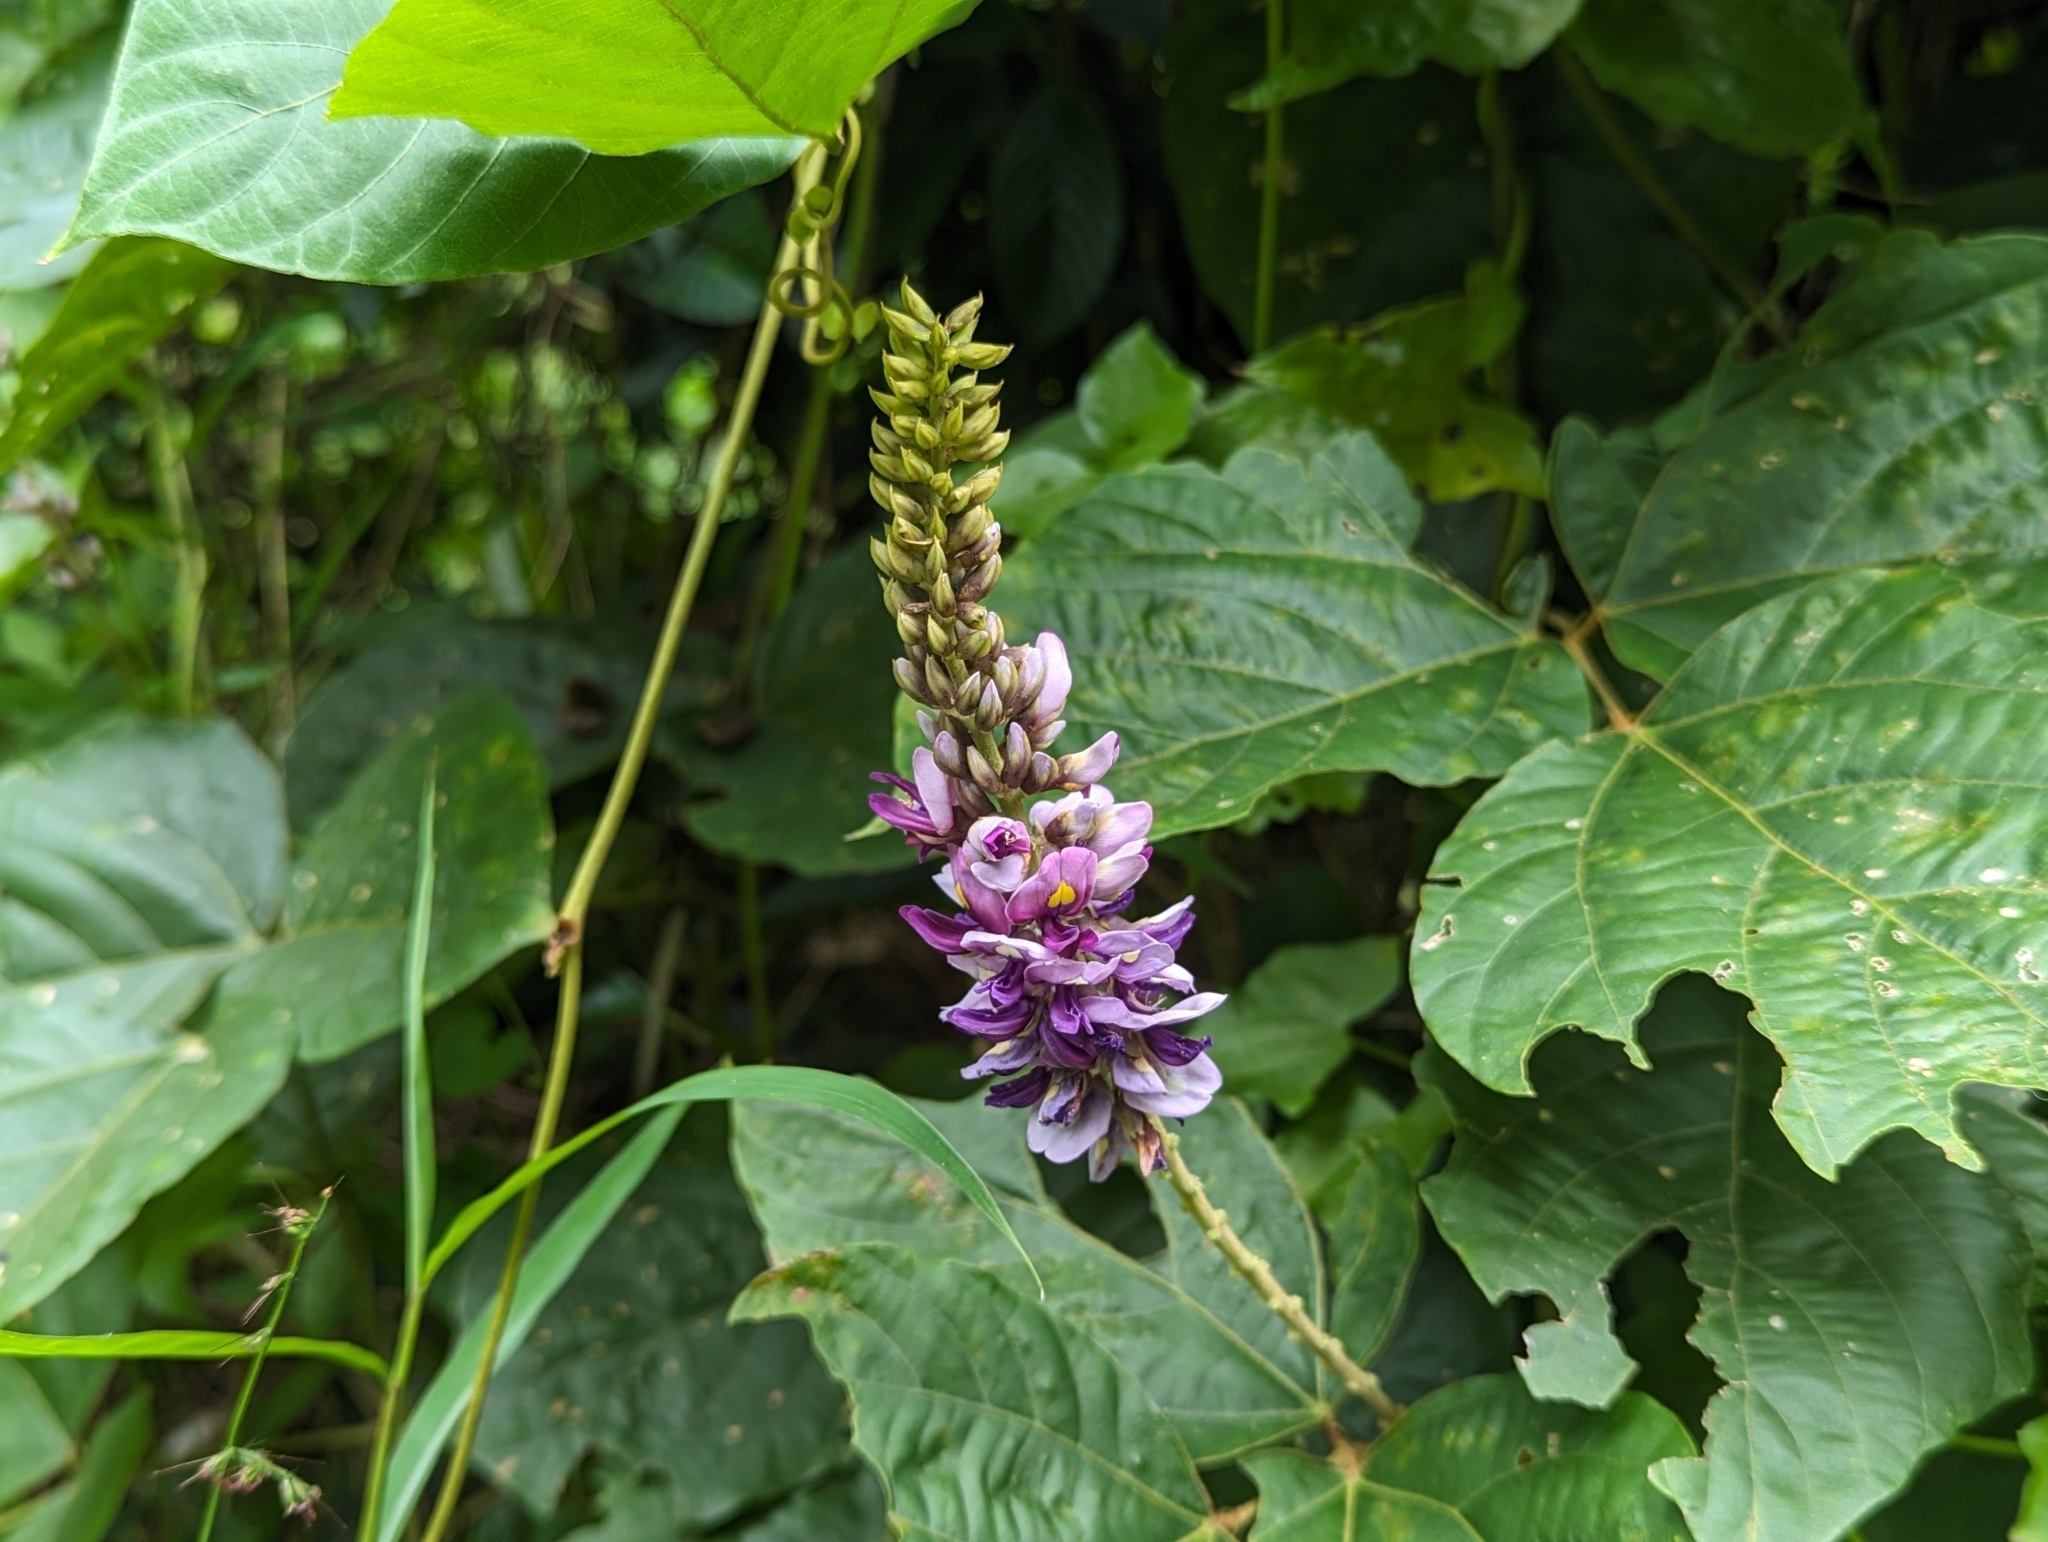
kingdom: Plantae
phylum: Tracheophyta
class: Magnoliopsida
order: Fabales
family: Fabaceae
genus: Pueraria
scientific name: Pueraria montana
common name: Kudzu
